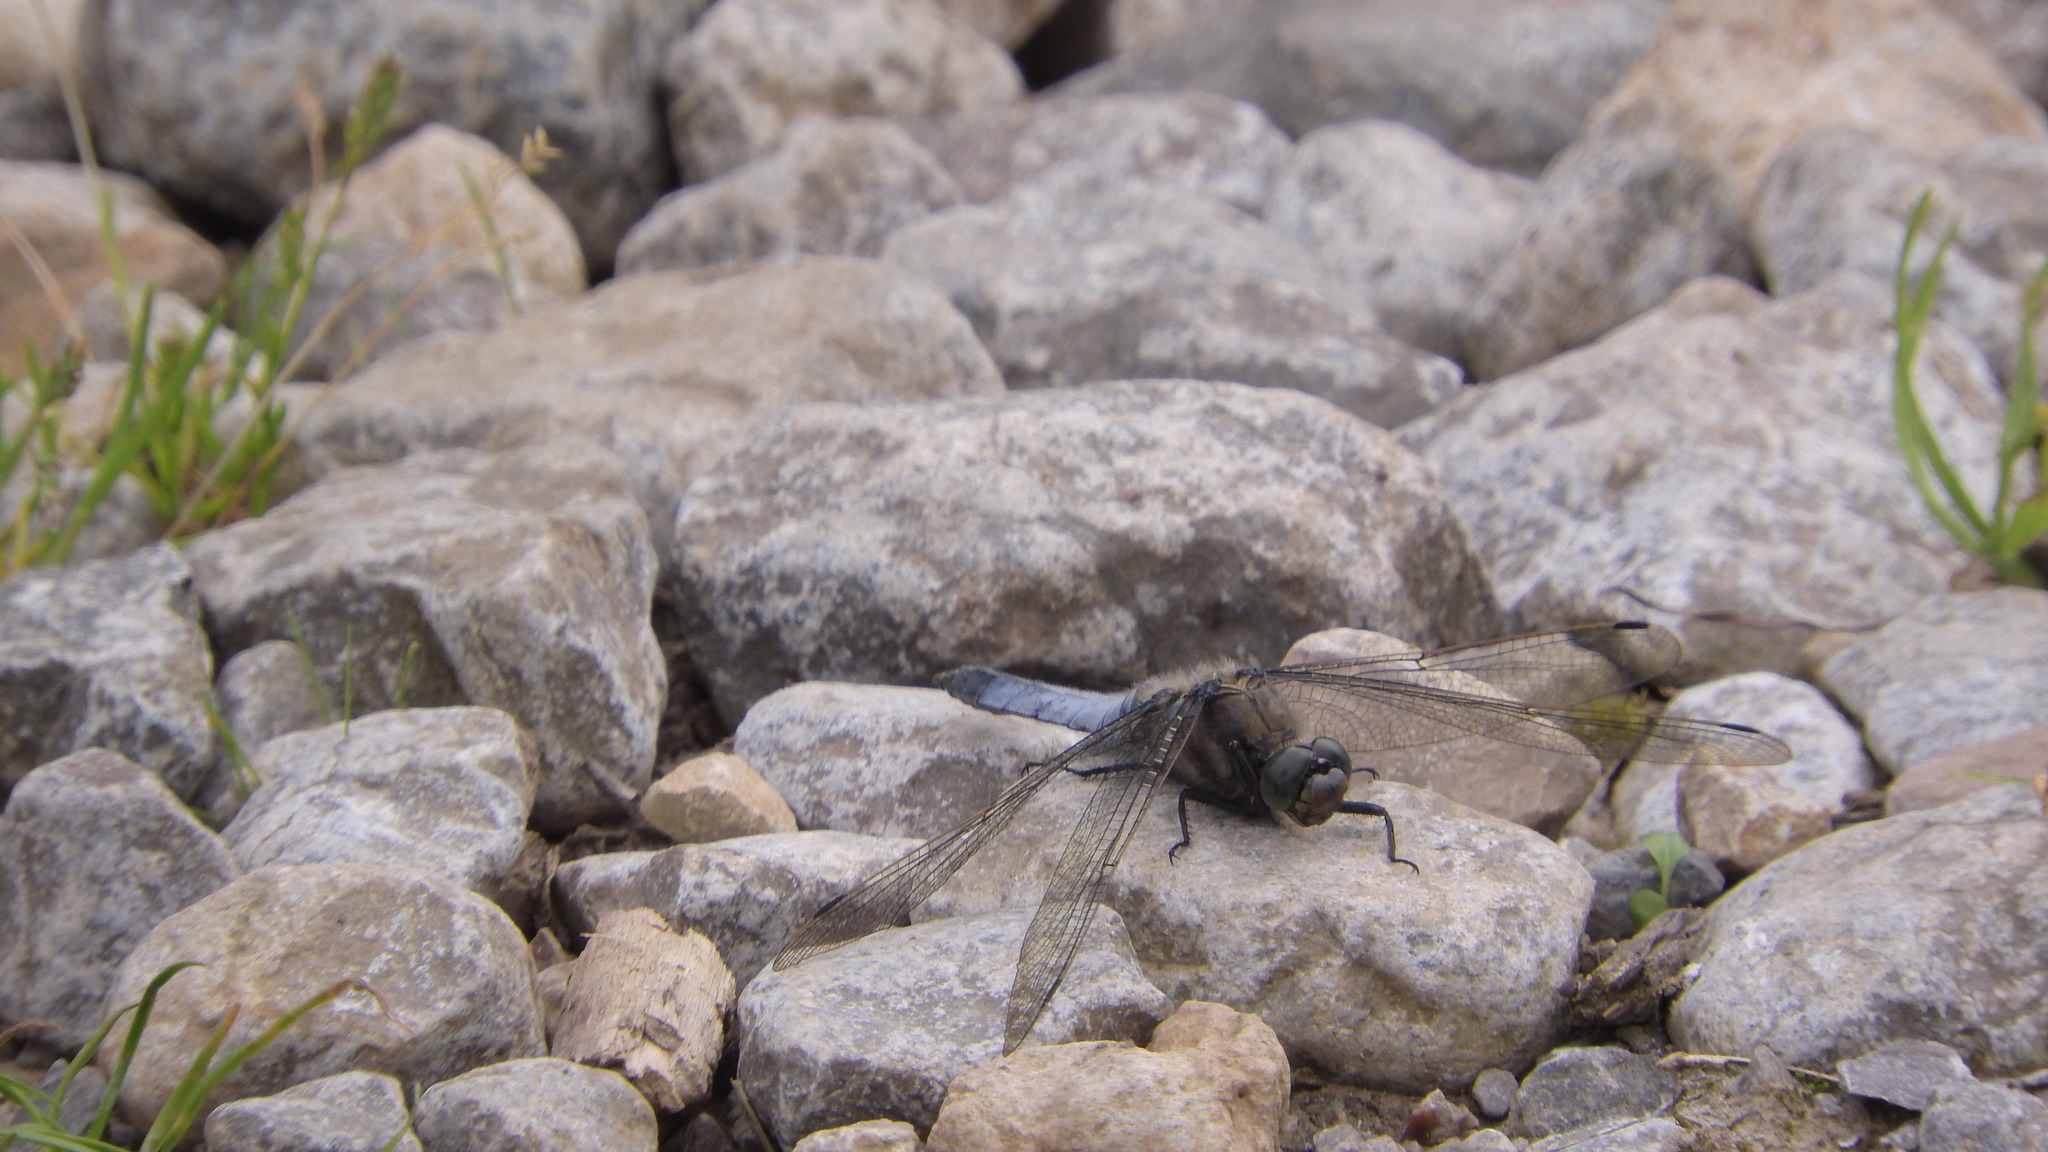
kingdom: Animalia
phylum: Arthropoda
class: Insecta
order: Odonata
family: Libellulidae
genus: Orthetrum
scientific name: Orthetrum cancellatum
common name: Black-tailed skimmer
